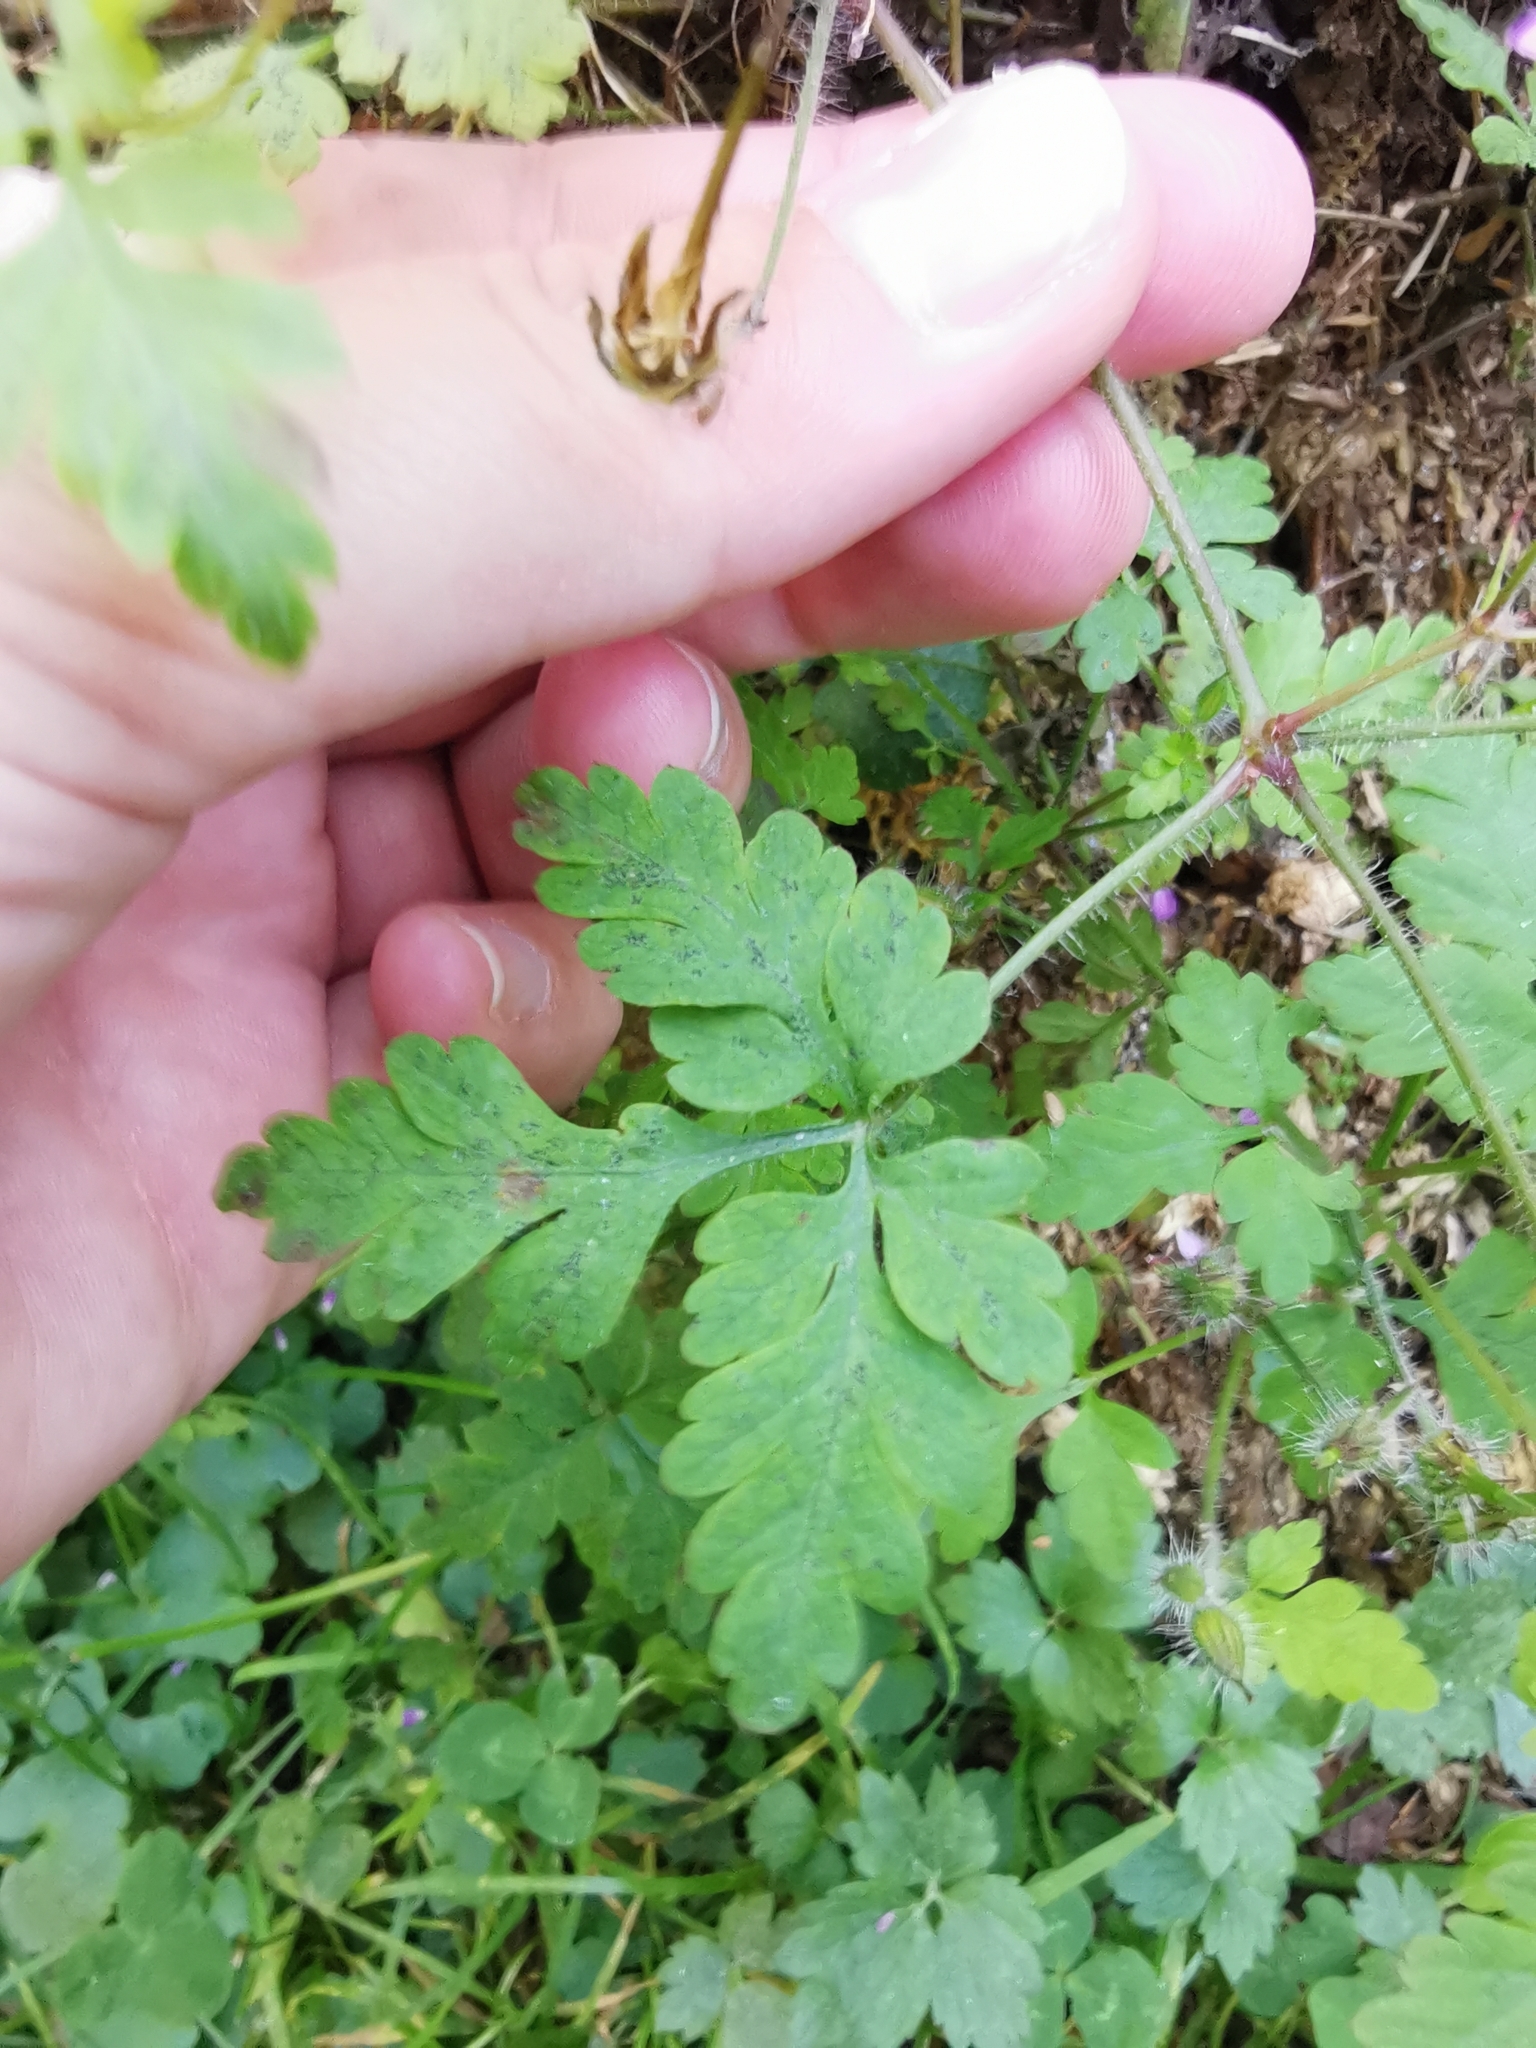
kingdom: Plantae
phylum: Tracheophyta
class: Magnoliopsida
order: Geraniales
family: Geraniaceae
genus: Geranium
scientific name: Geranium robertianum
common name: Herb-robert
